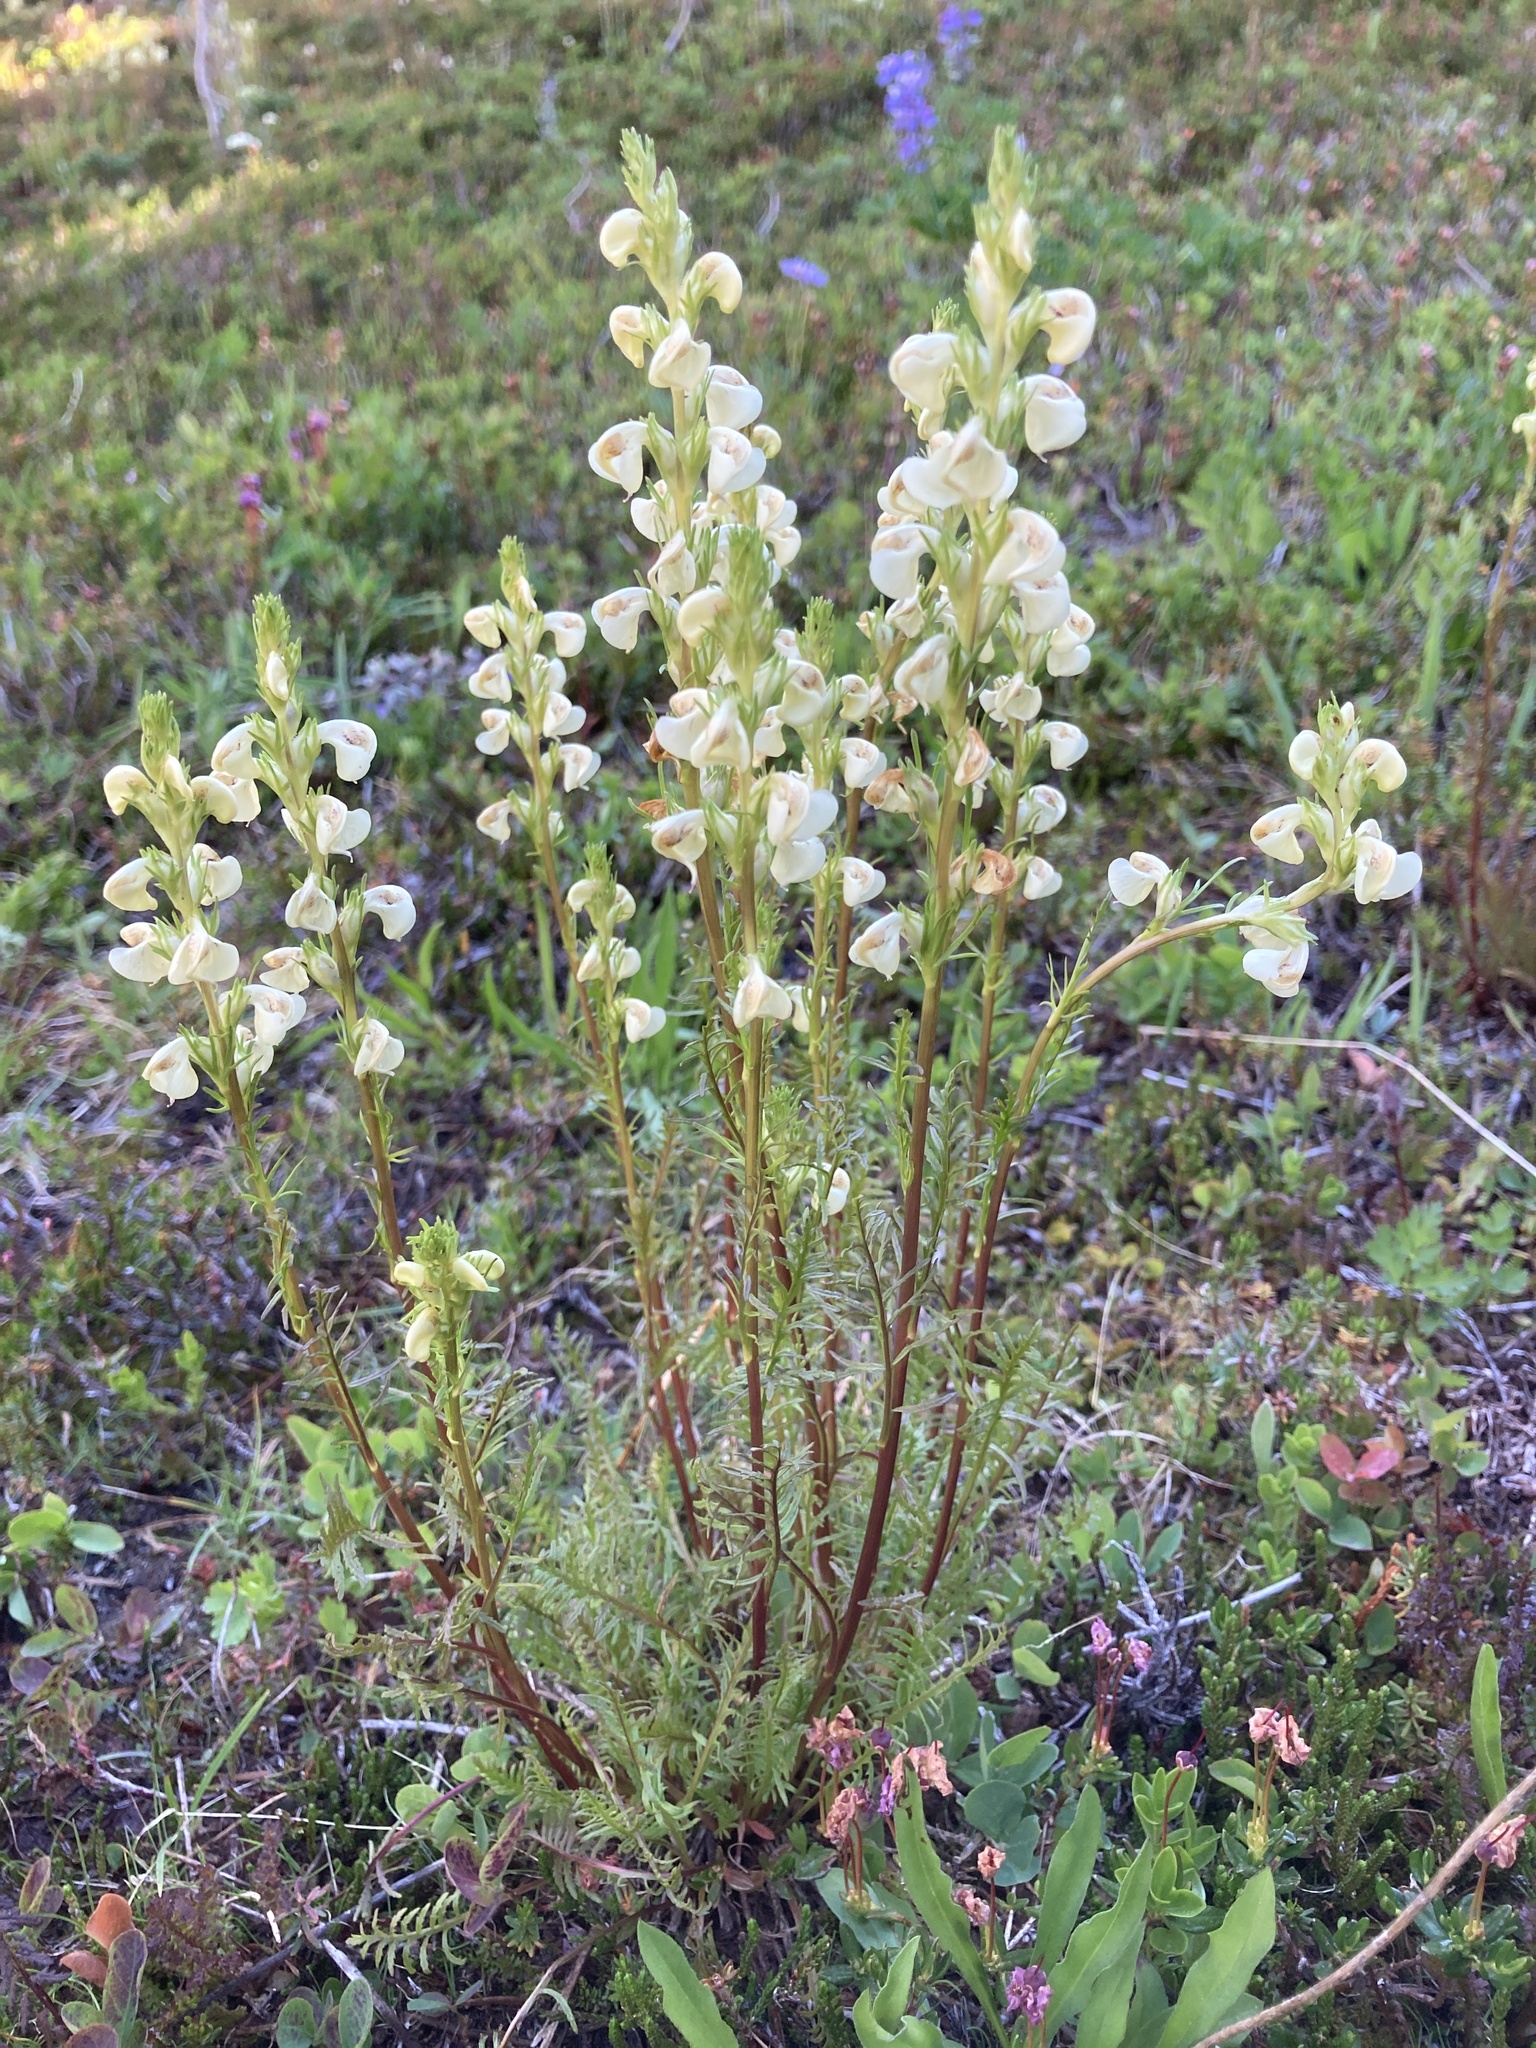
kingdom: Plantae
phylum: Tracheophyta
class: Magnoliopsida
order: Lamiales
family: Orobanchaceae
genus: Pedicularis
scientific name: Pedicularis contorta
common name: Coiled lousewort
